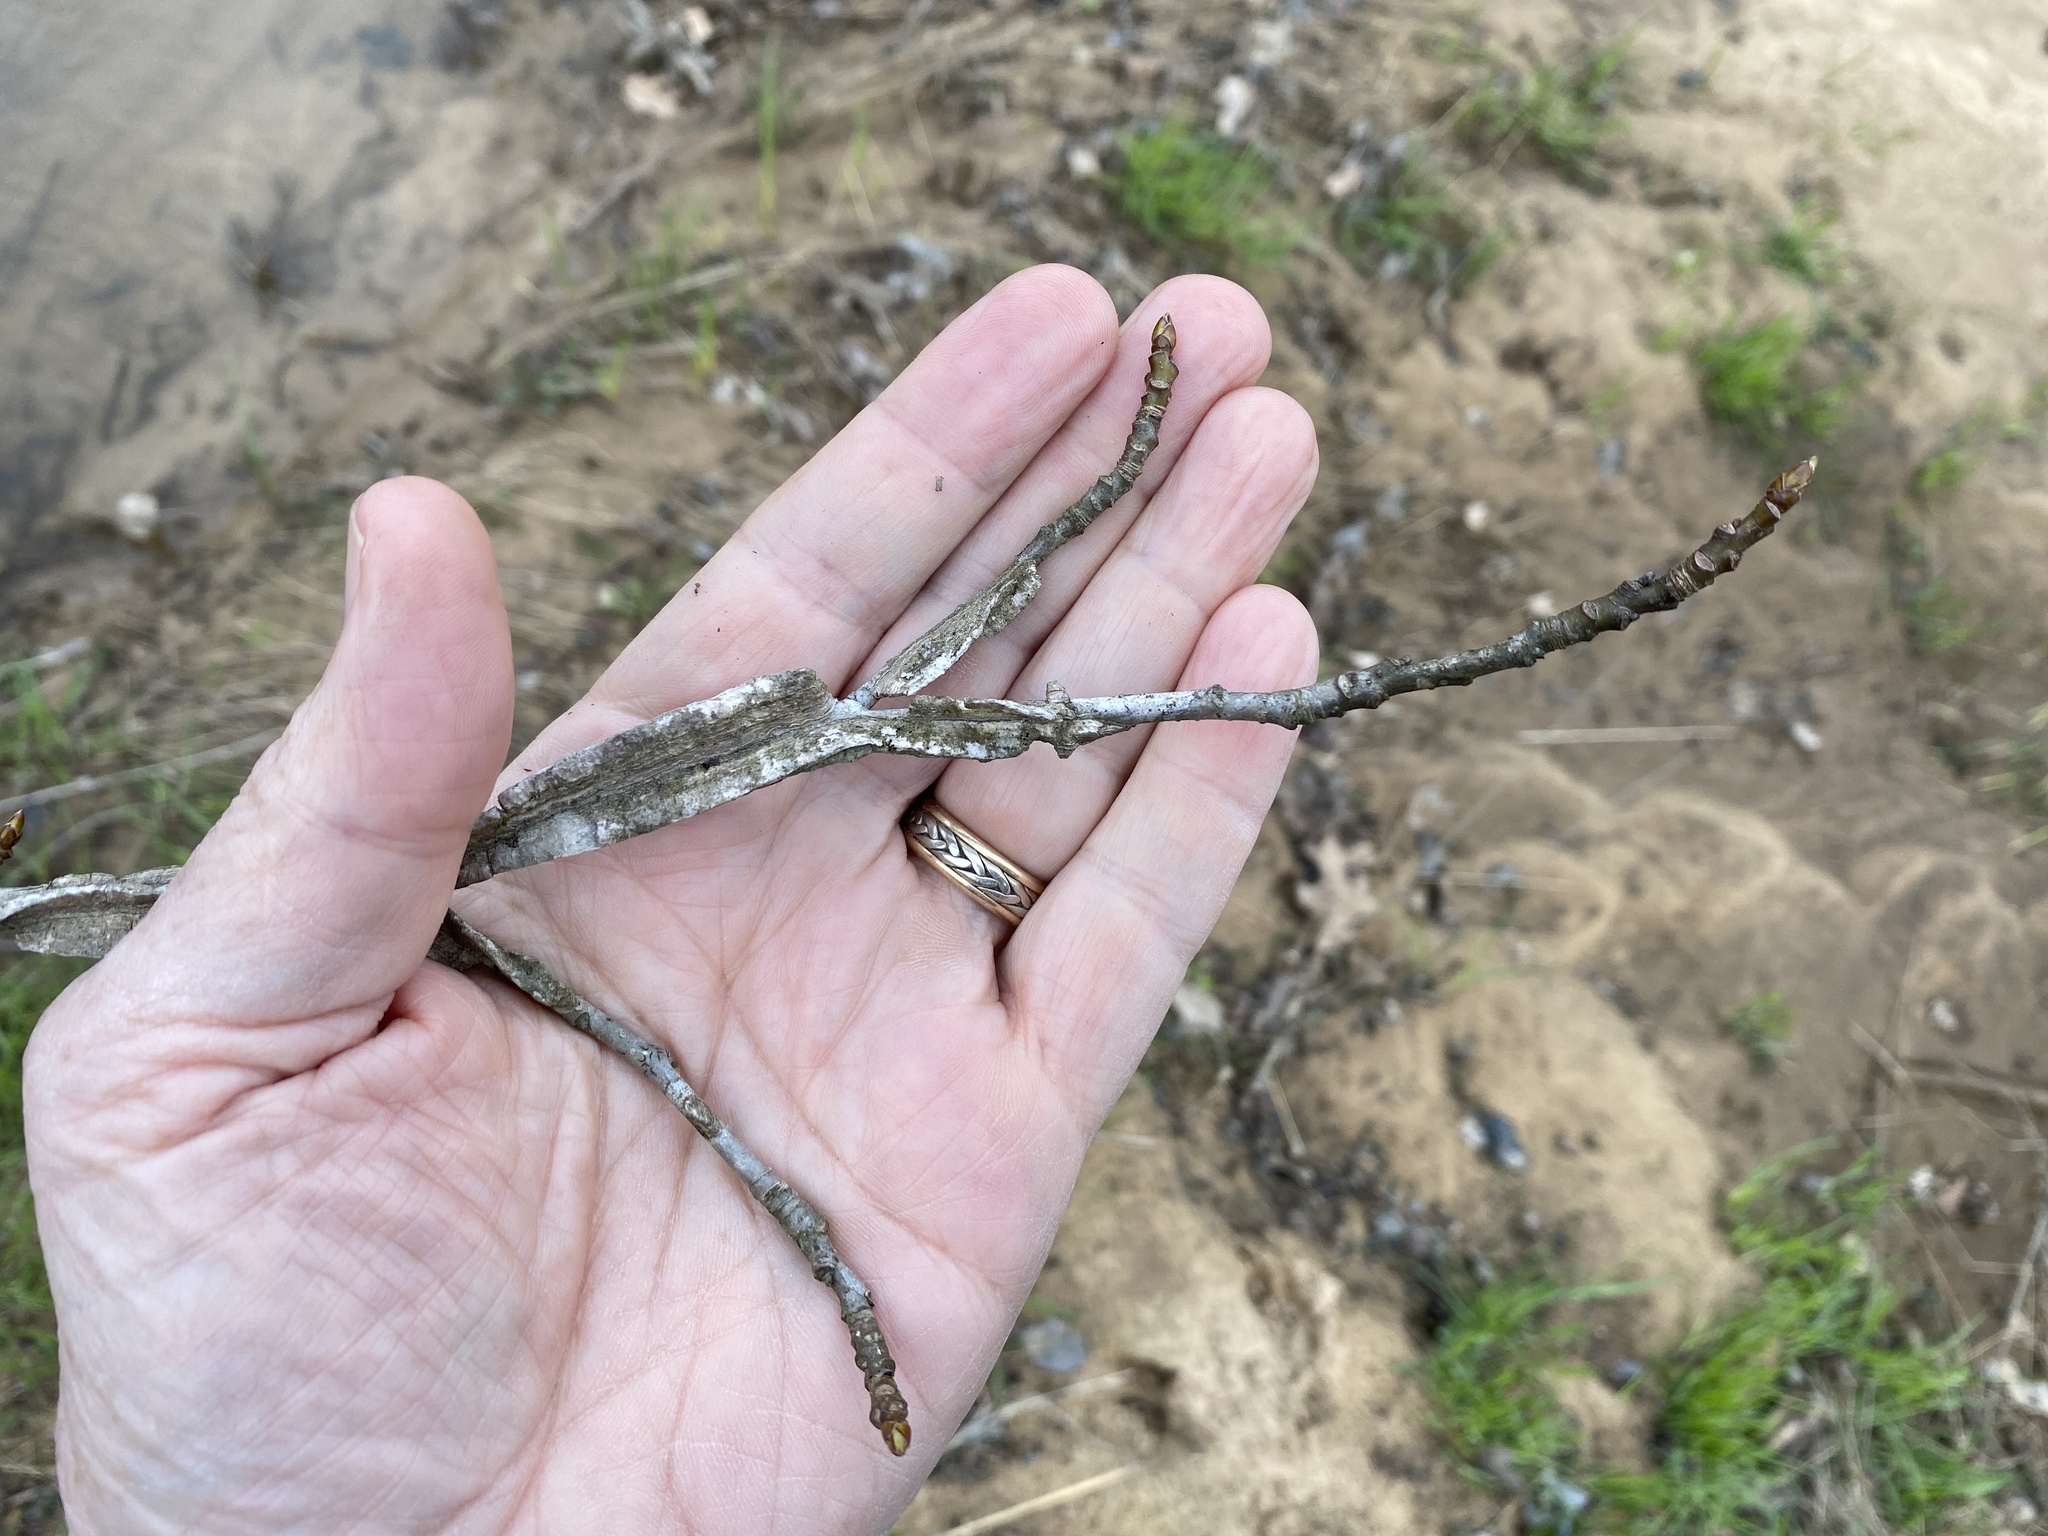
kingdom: Plantae
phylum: Tracheophyta
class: Magnoliopsida
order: Saxifragales
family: Altingiaceae
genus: Liquidambar
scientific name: Liquidambar styraciflua
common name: Sweet gum
